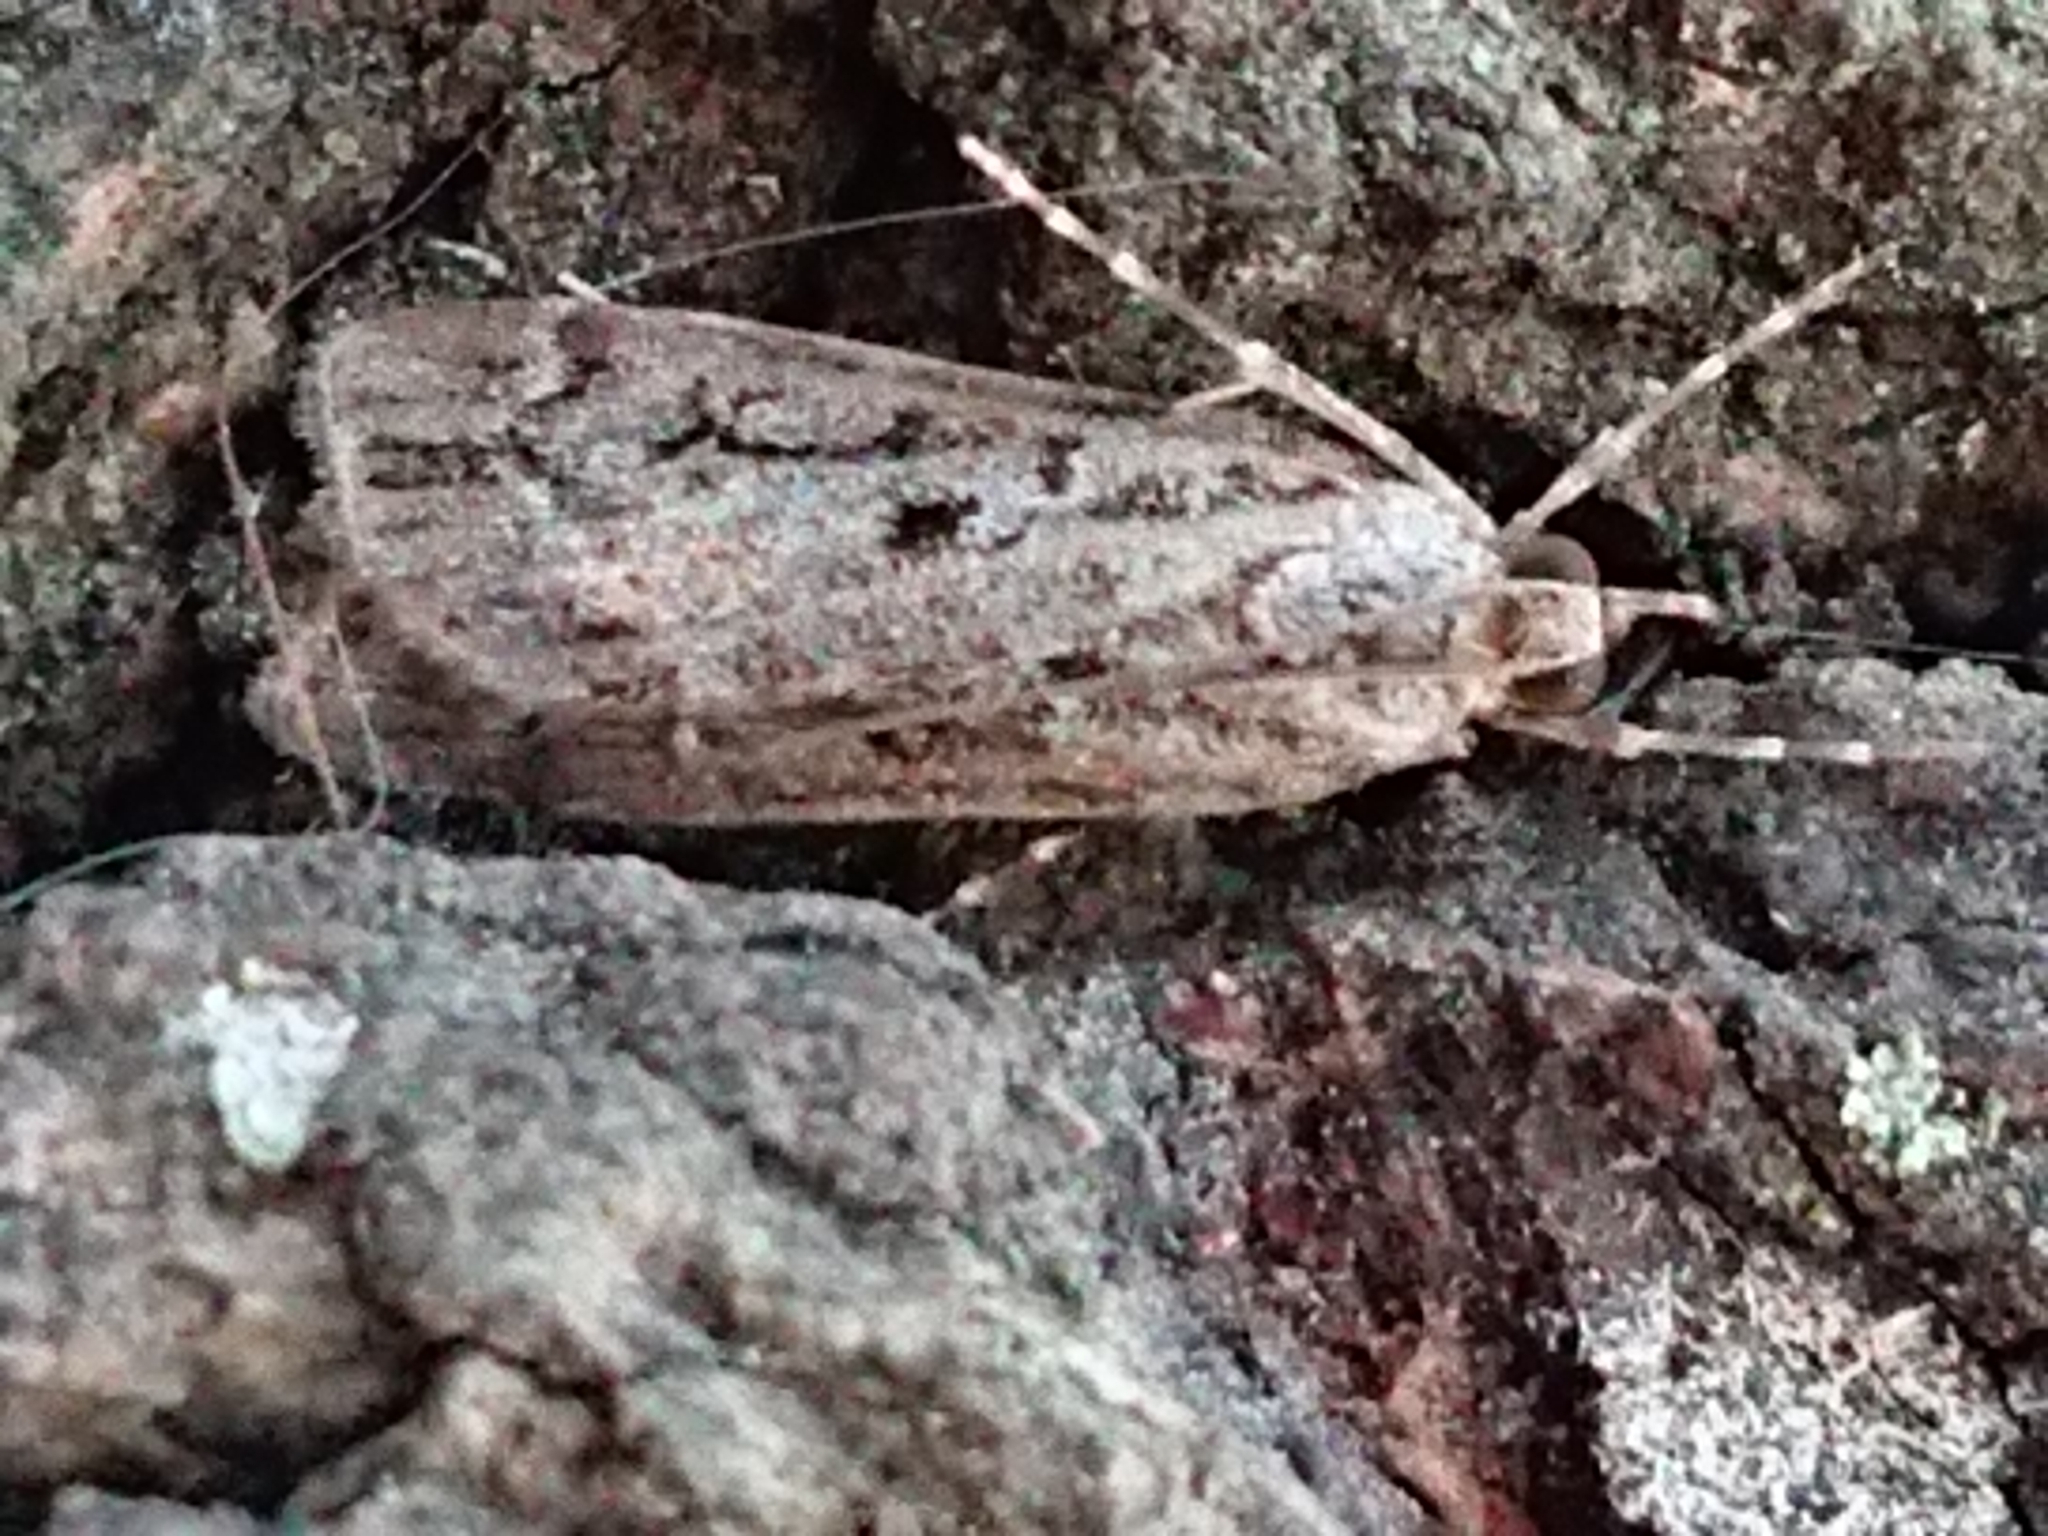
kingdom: Animalia
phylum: Arthropoda
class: Insecta
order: Lepidoptera
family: Crambidae
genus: Eudonia
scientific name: Eudonia submarginalis
